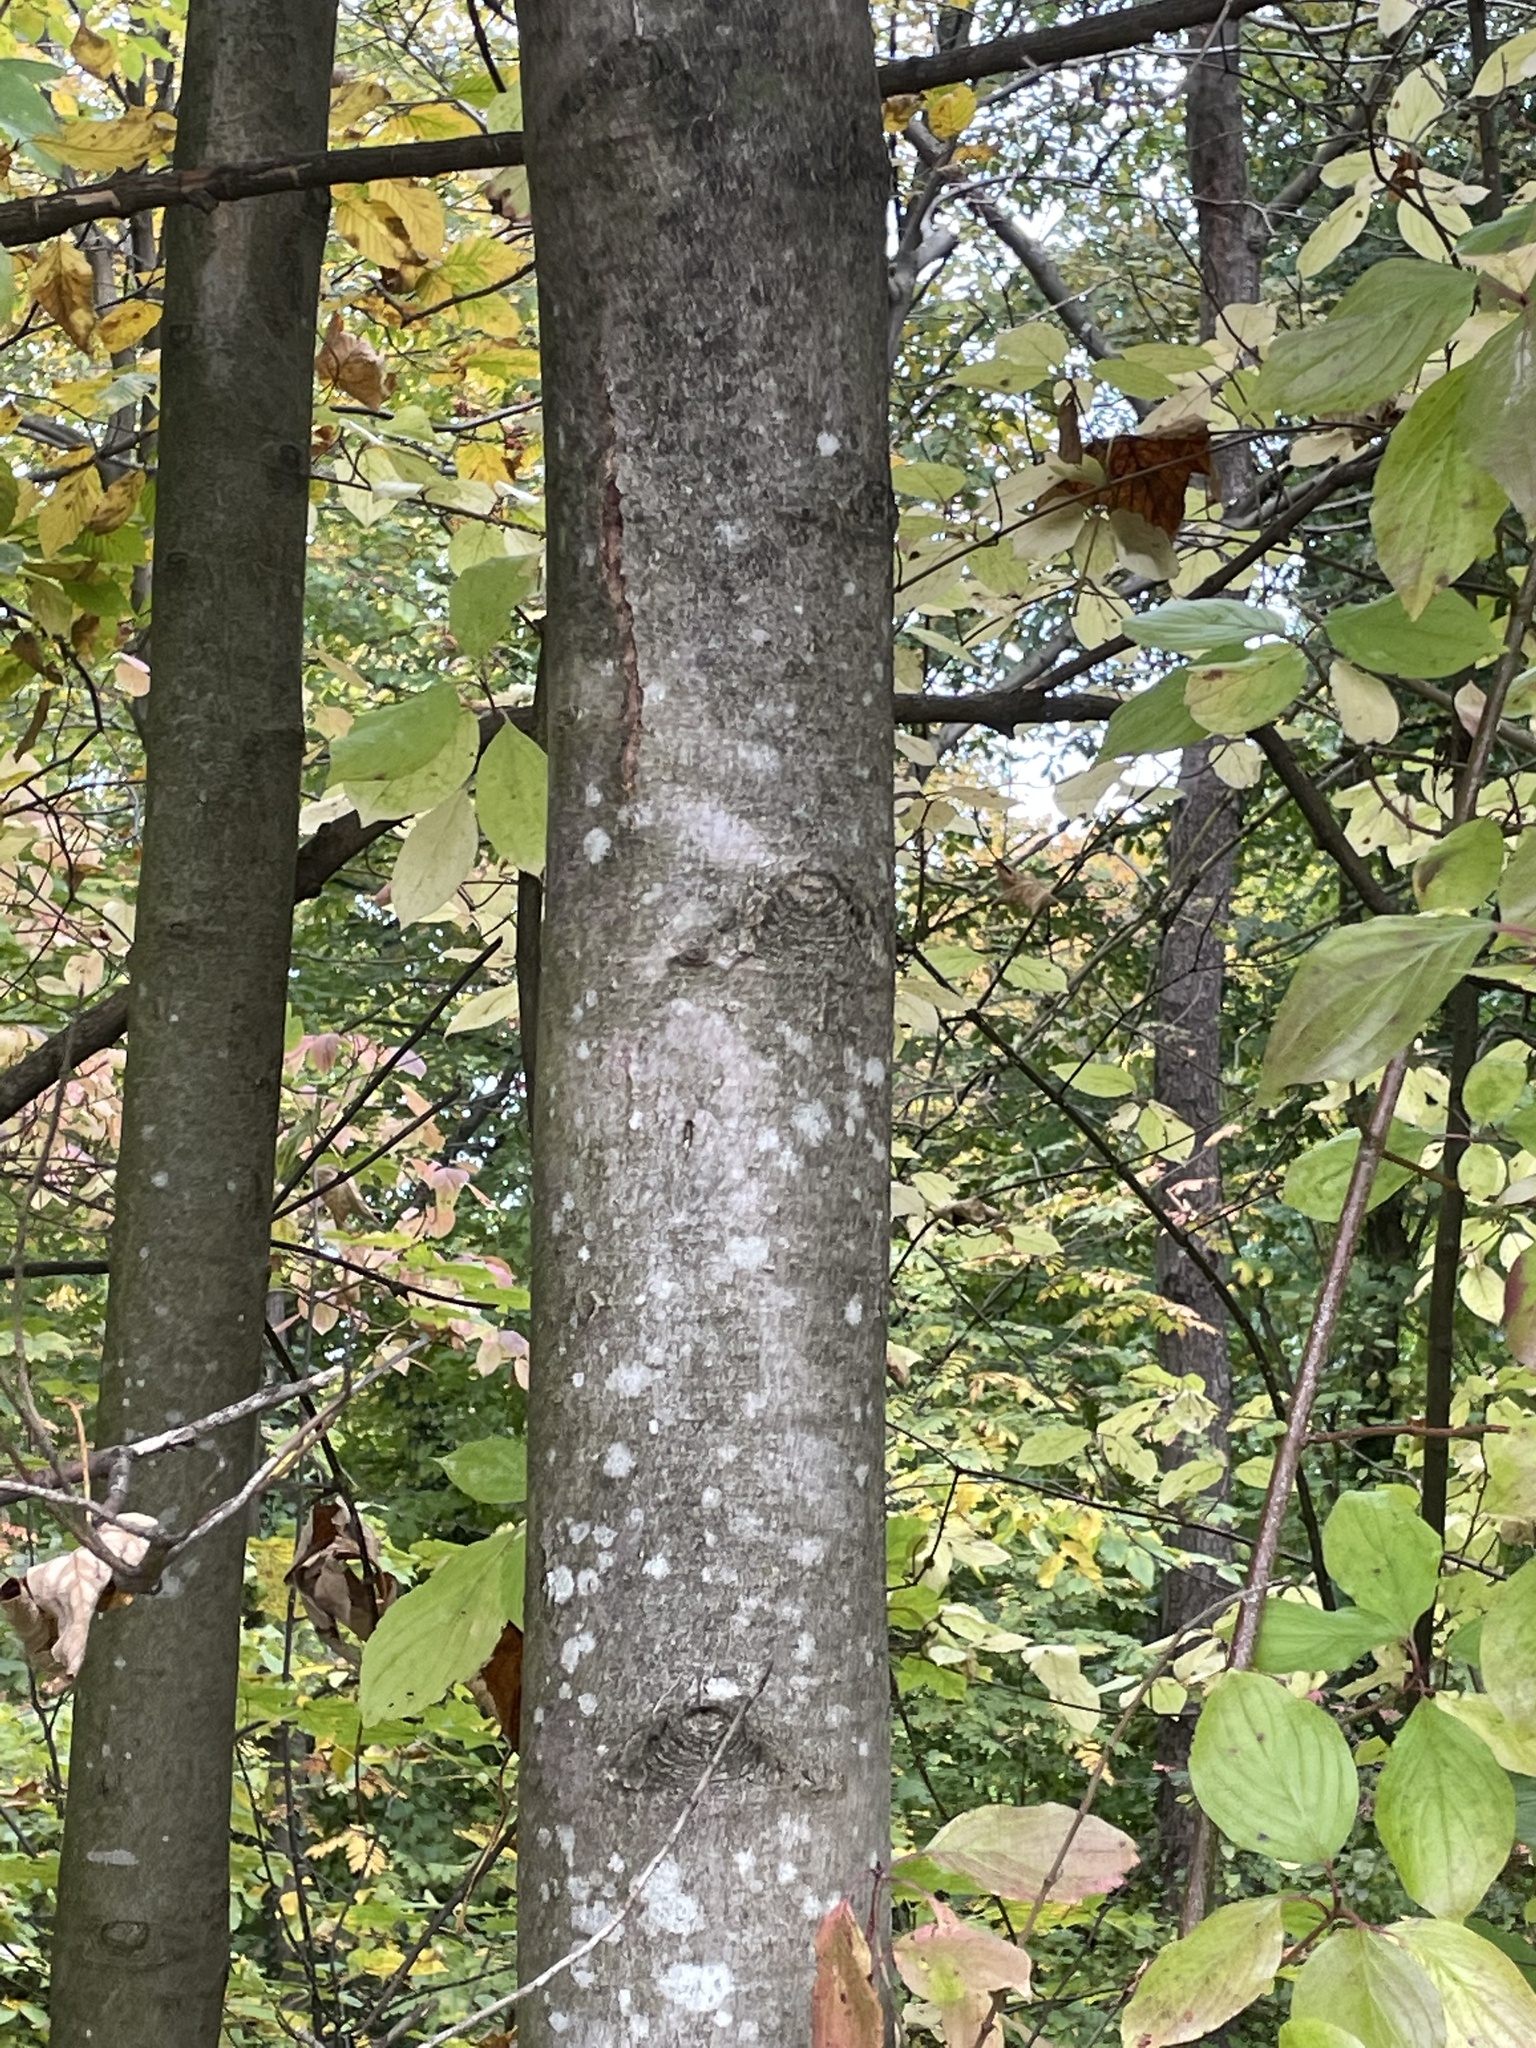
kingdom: Plantae
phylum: Tracheophyta
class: Magnoliopsida
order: Sapindales
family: Sapindaceae
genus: Acer
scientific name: Acer pseudoplatanus
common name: Sycamore
